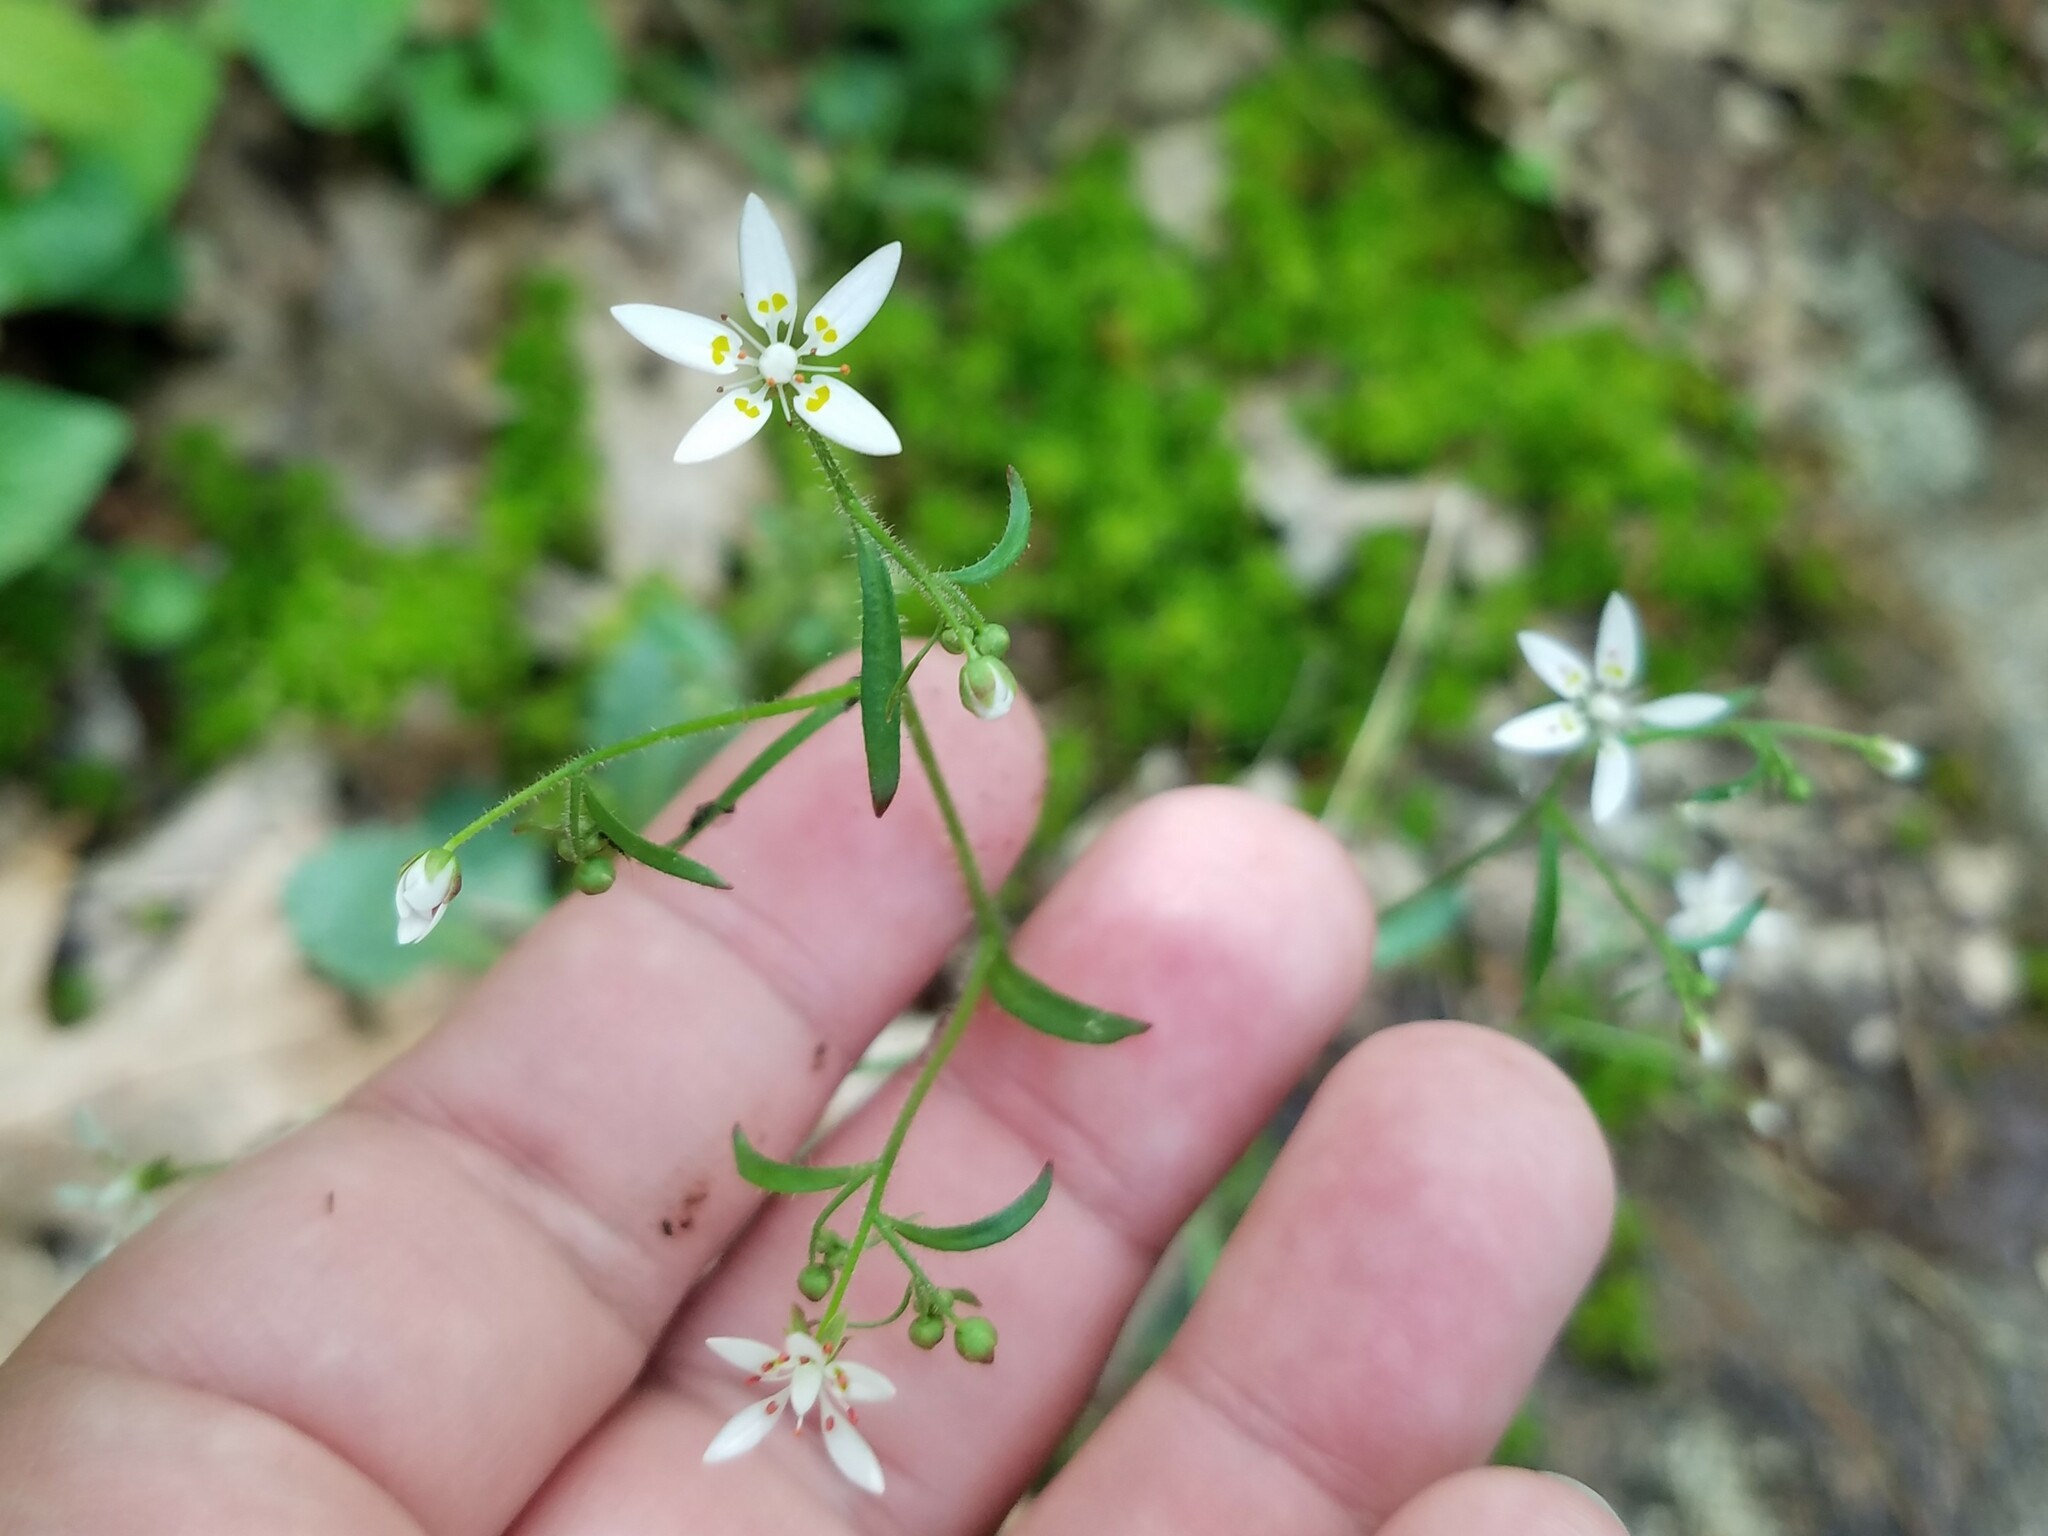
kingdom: Plantae
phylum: Tracheophyta
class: Magnoliopsida
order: Saxifragales
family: Saxifragaceae
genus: Micranthes
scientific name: Micranthes petiolaris
